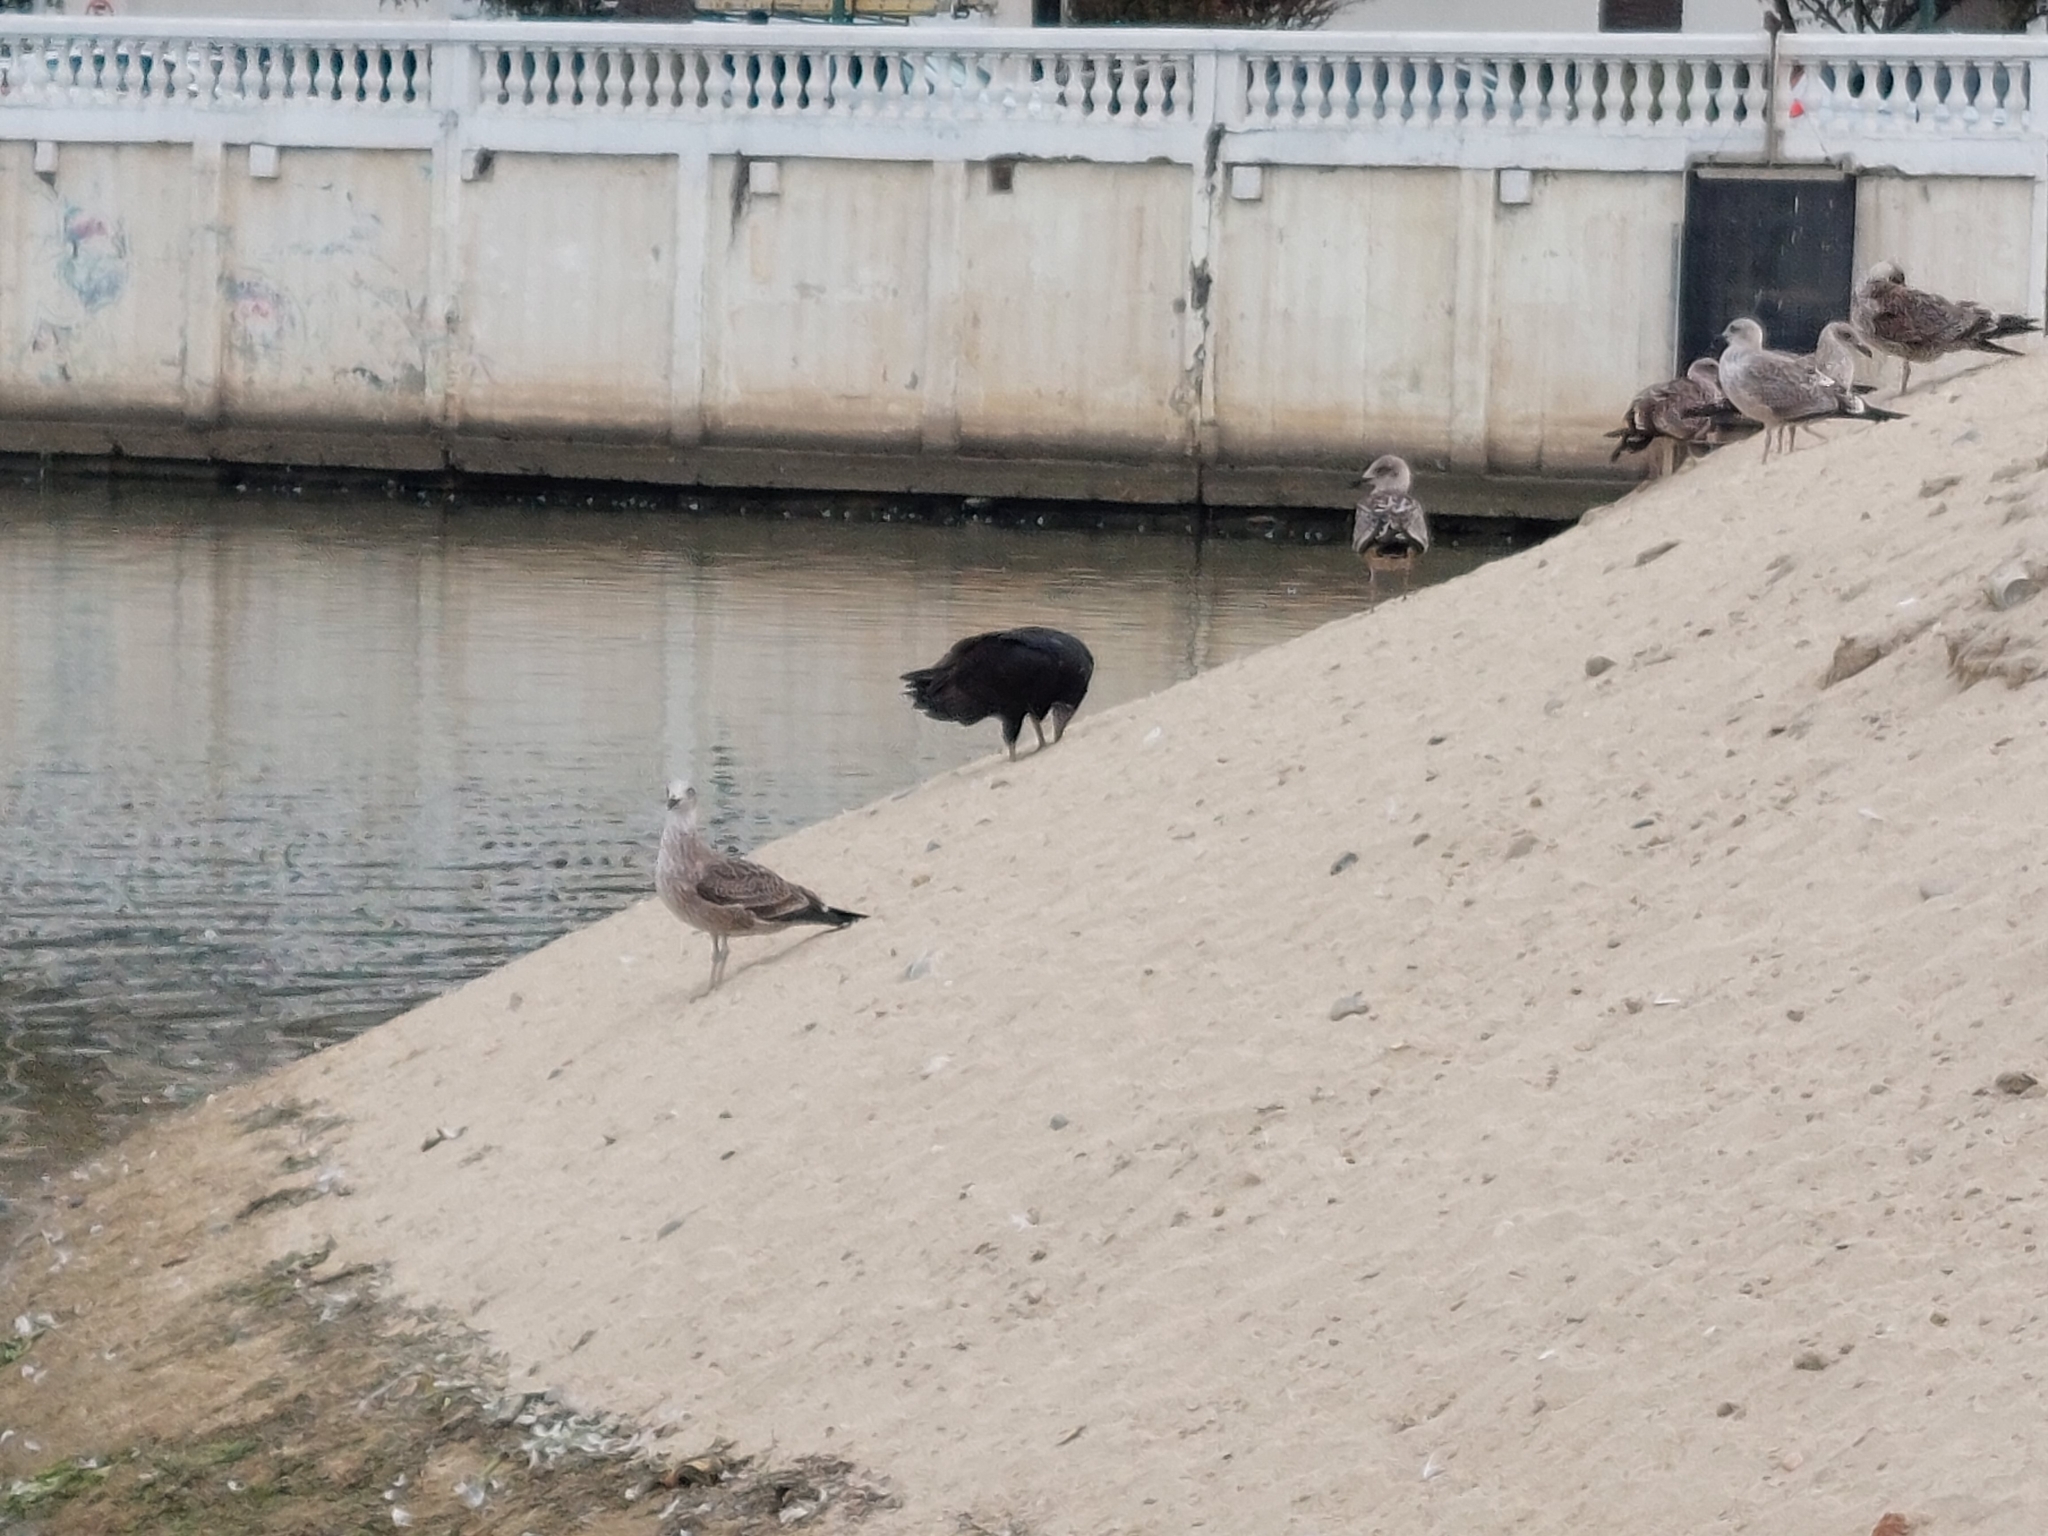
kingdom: Animalia
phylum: Chordata
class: Aves
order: Accipitriformes
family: Cathartidae
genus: Cathartes
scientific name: Cathartes aura
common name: Turkey vulture
